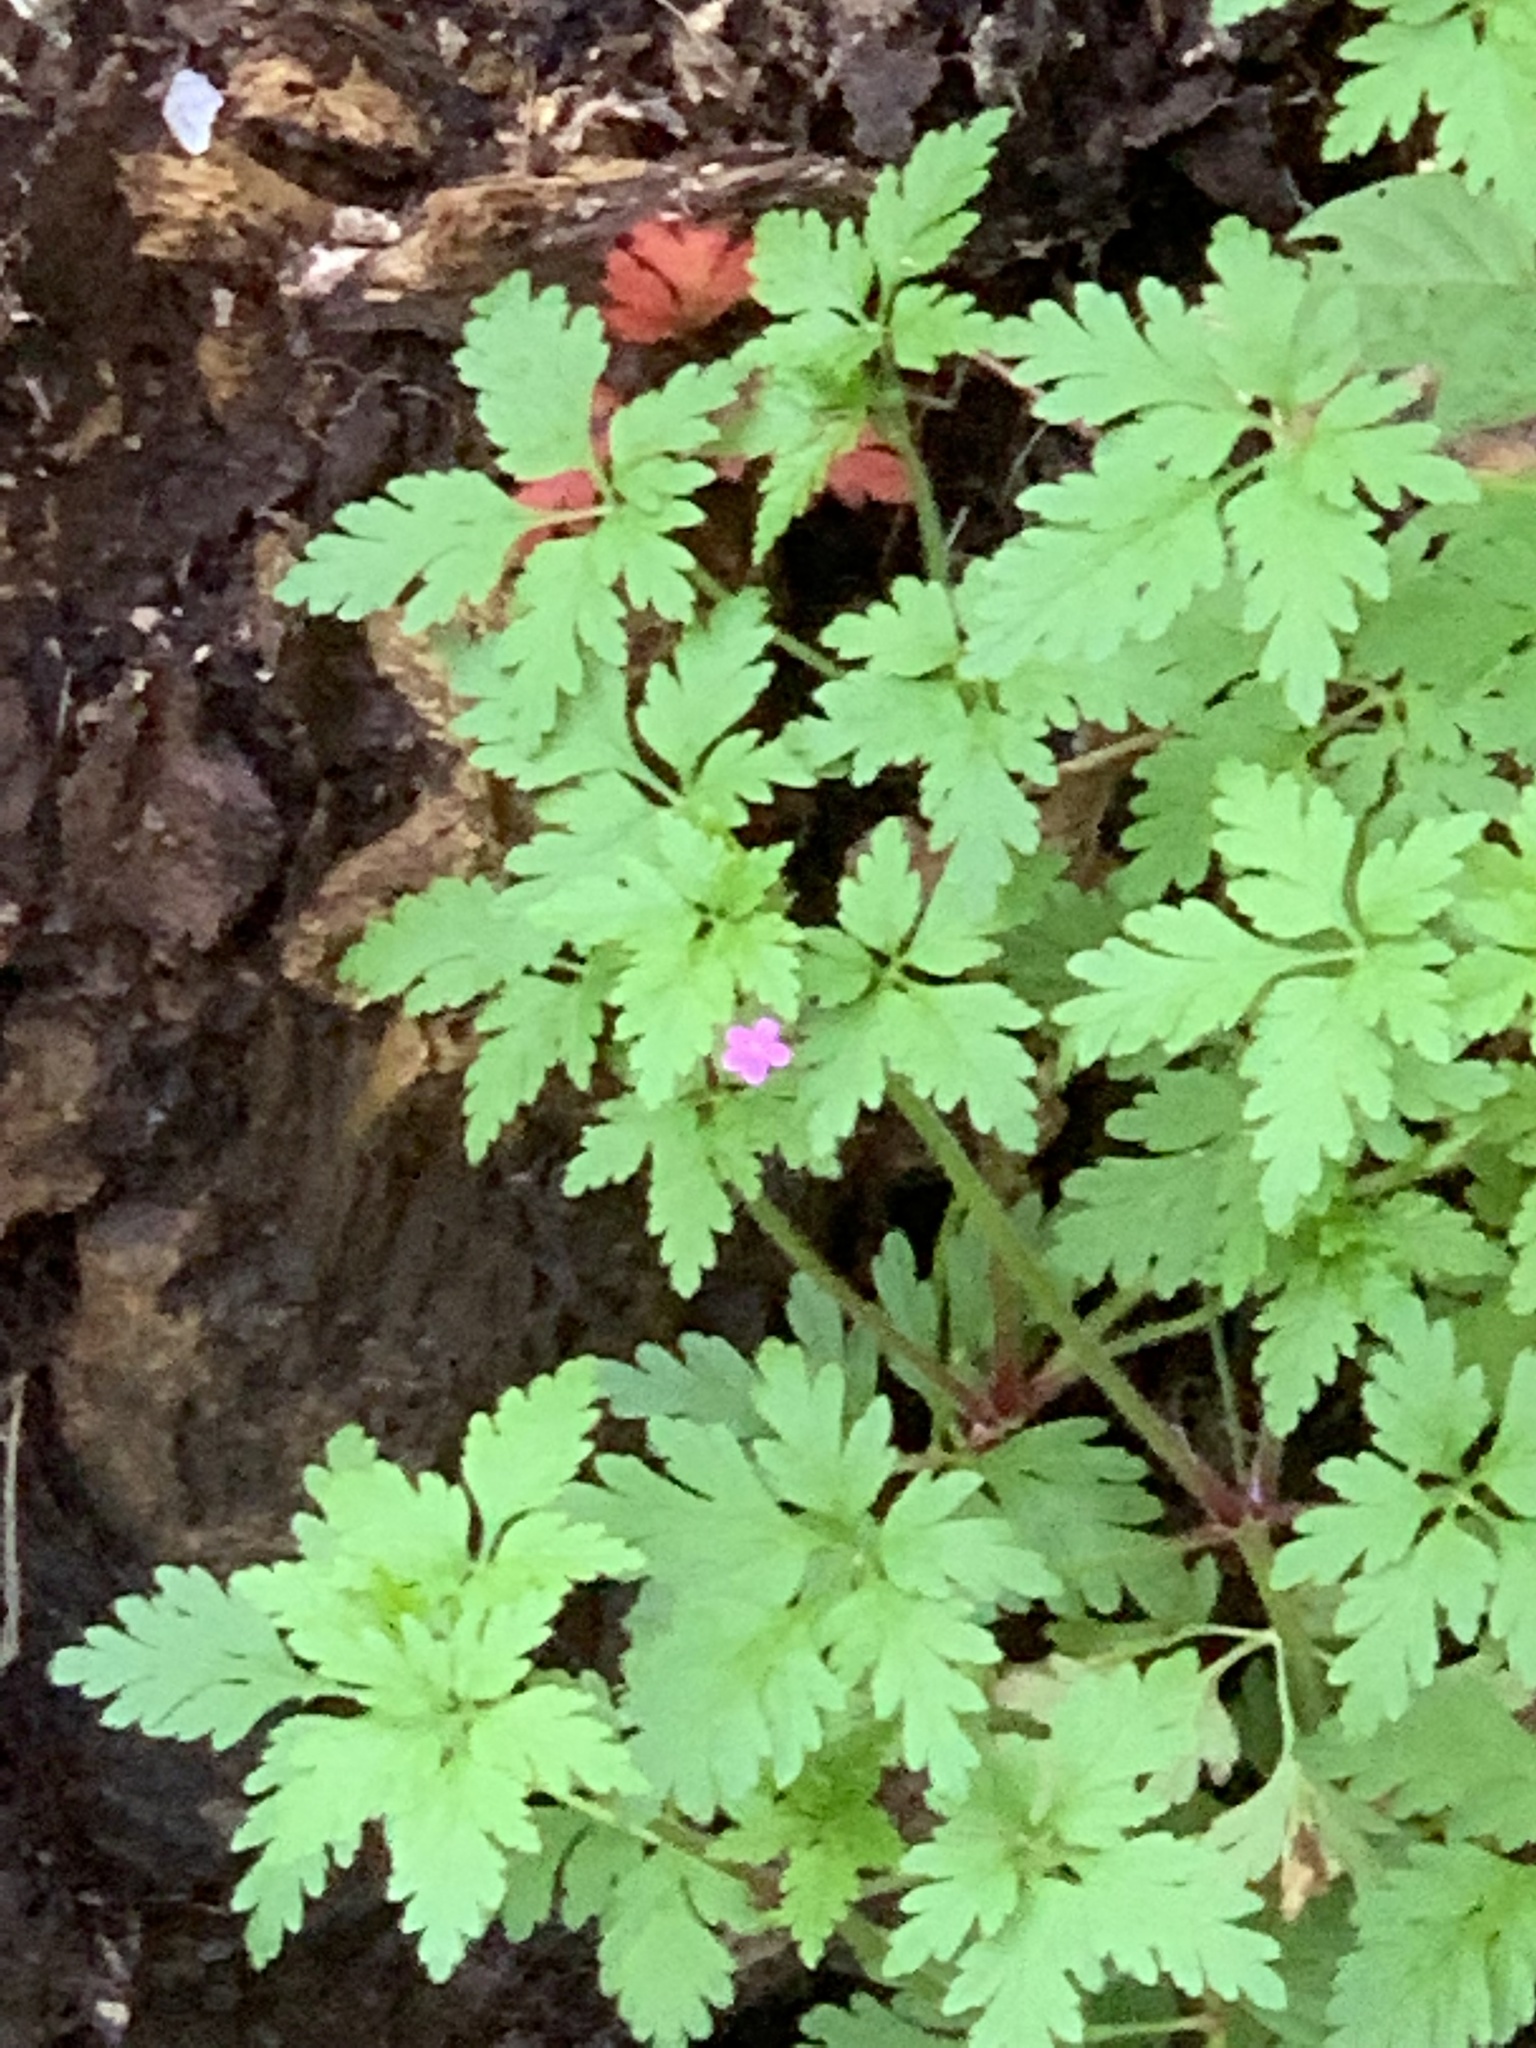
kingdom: Plantae
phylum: Tracheophyta
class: Magnoliopsida
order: Geraniales
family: Geraniaceae
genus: Geranium
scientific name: Geranium purpureum
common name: Little-robin
